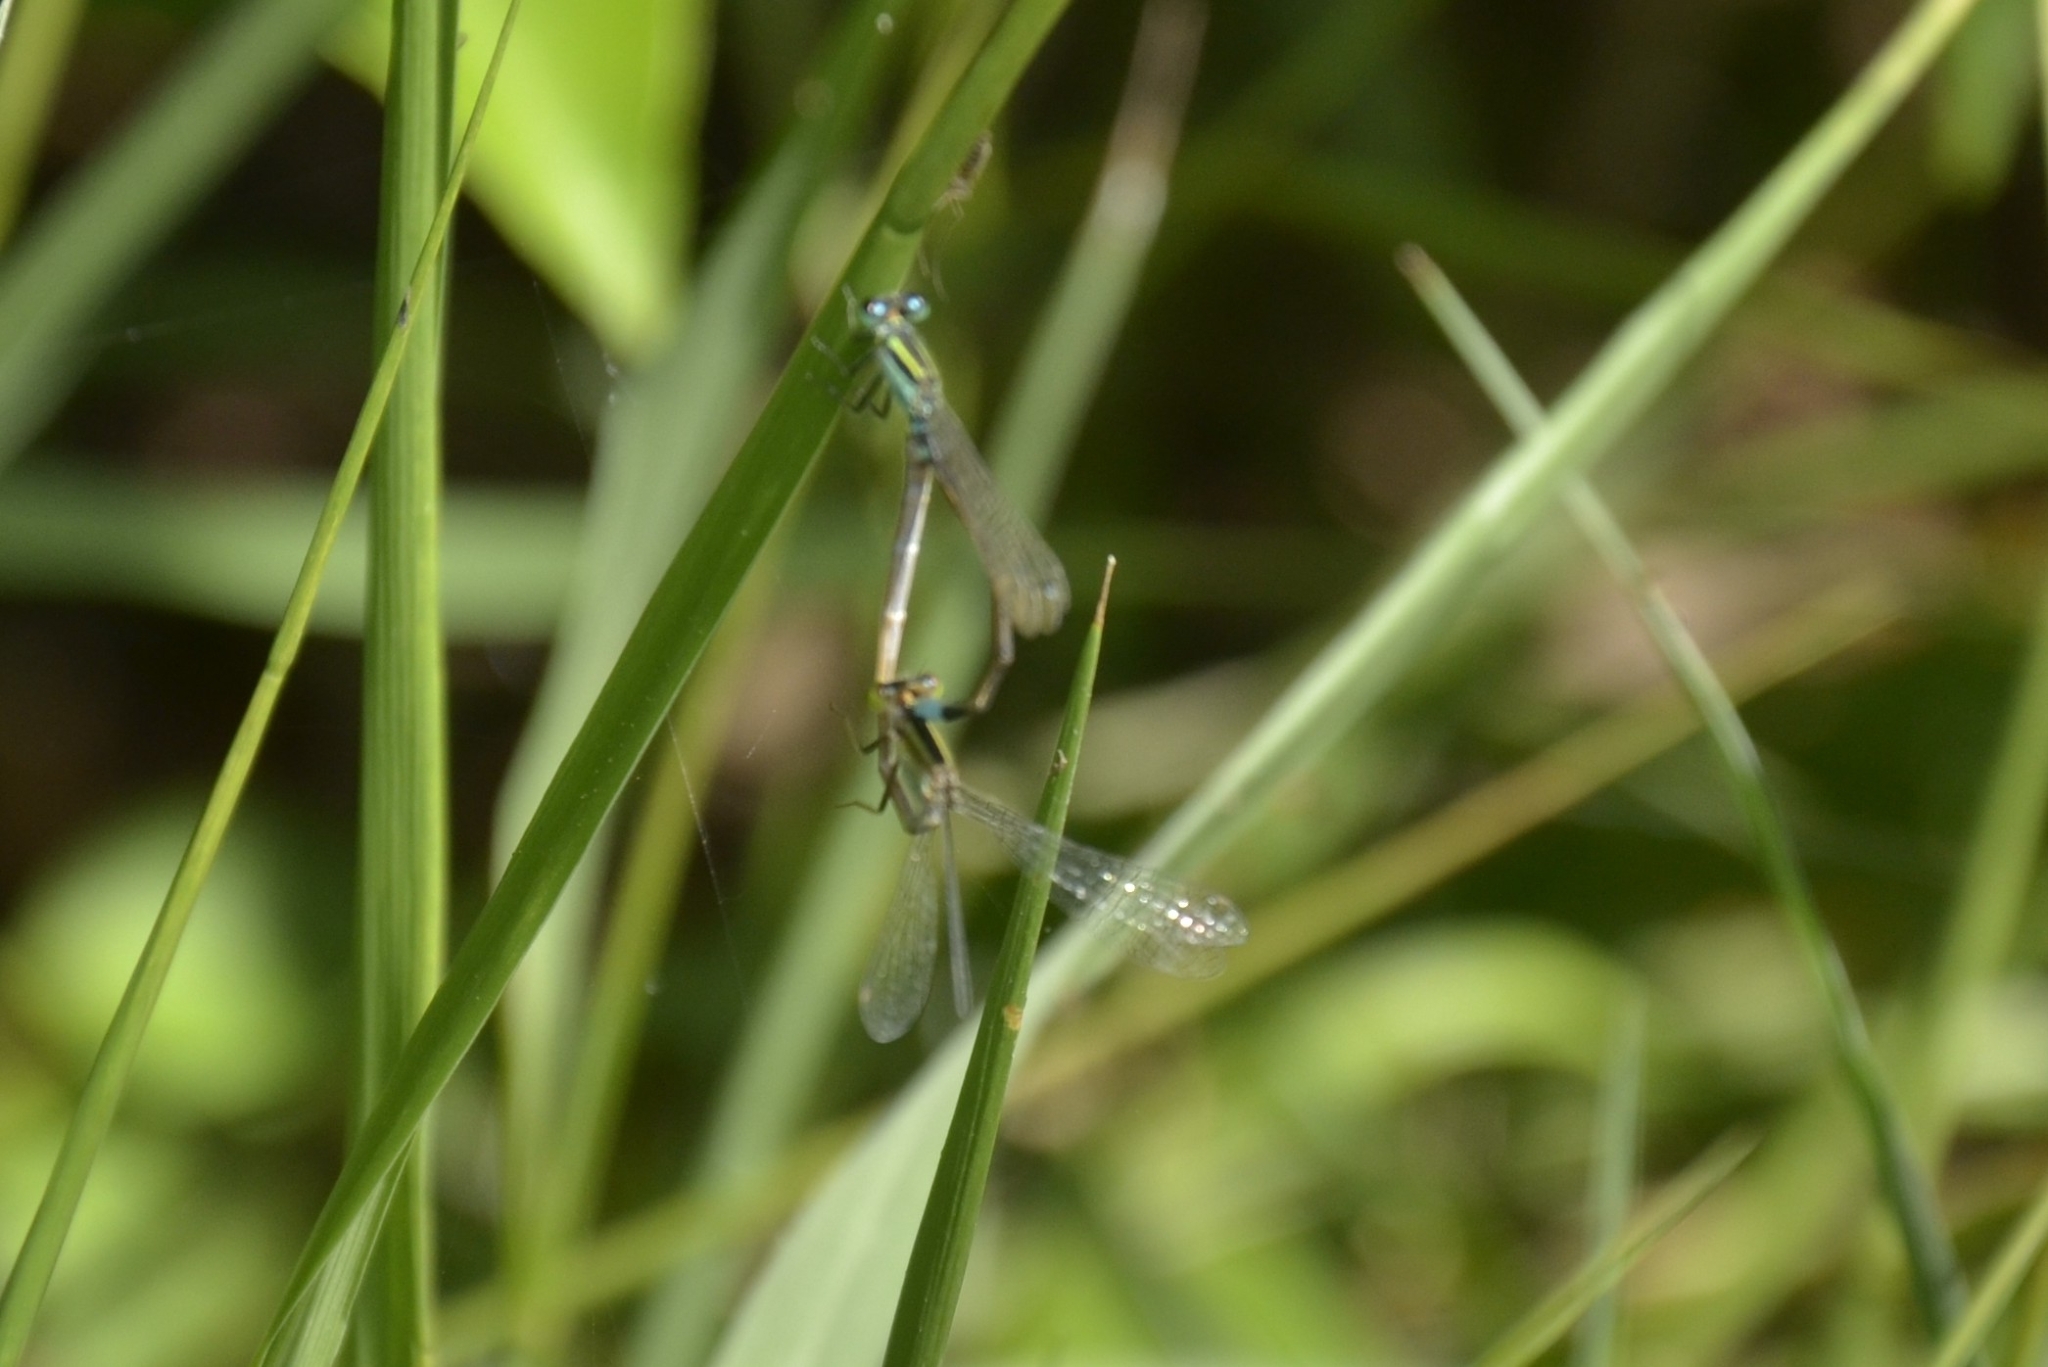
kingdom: Animalia
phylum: Arthropoda
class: Insecta
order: Odonata
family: Coenagrionidae
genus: Ischnura
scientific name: Ischnura senegalensis
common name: Tropical bluetail
